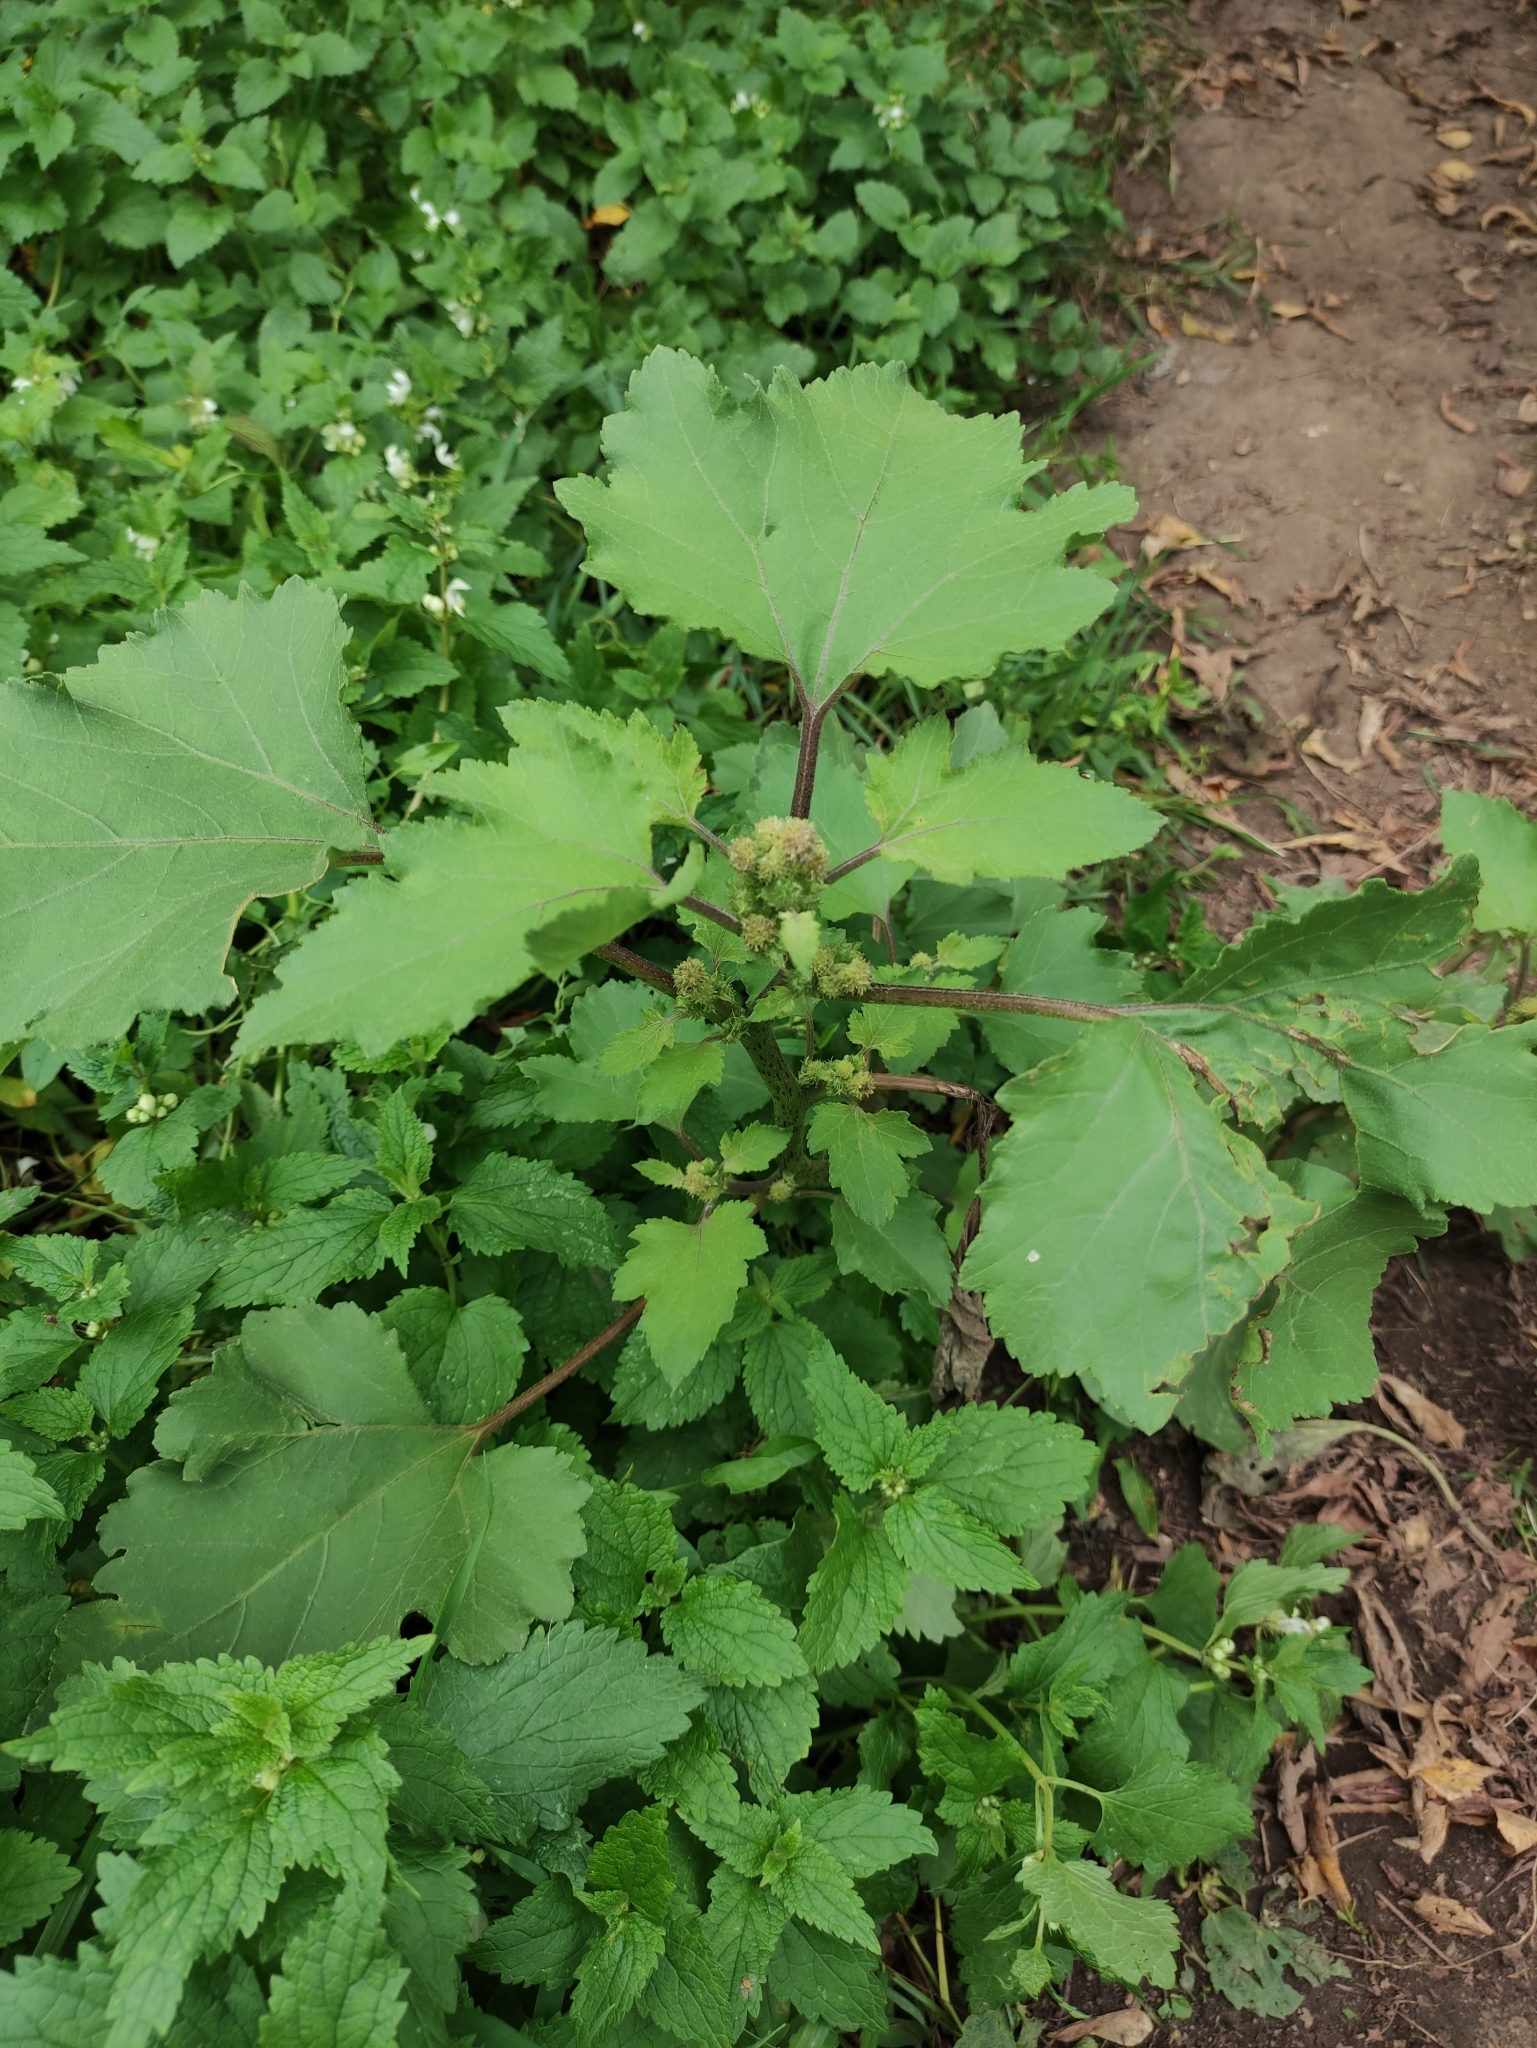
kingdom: Plantae
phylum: Tracheophyta
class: Magnoliopsida
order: Asterales
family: Asteraceae
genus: Xanthium
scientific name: Xanthium orientale
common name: Californian burr
